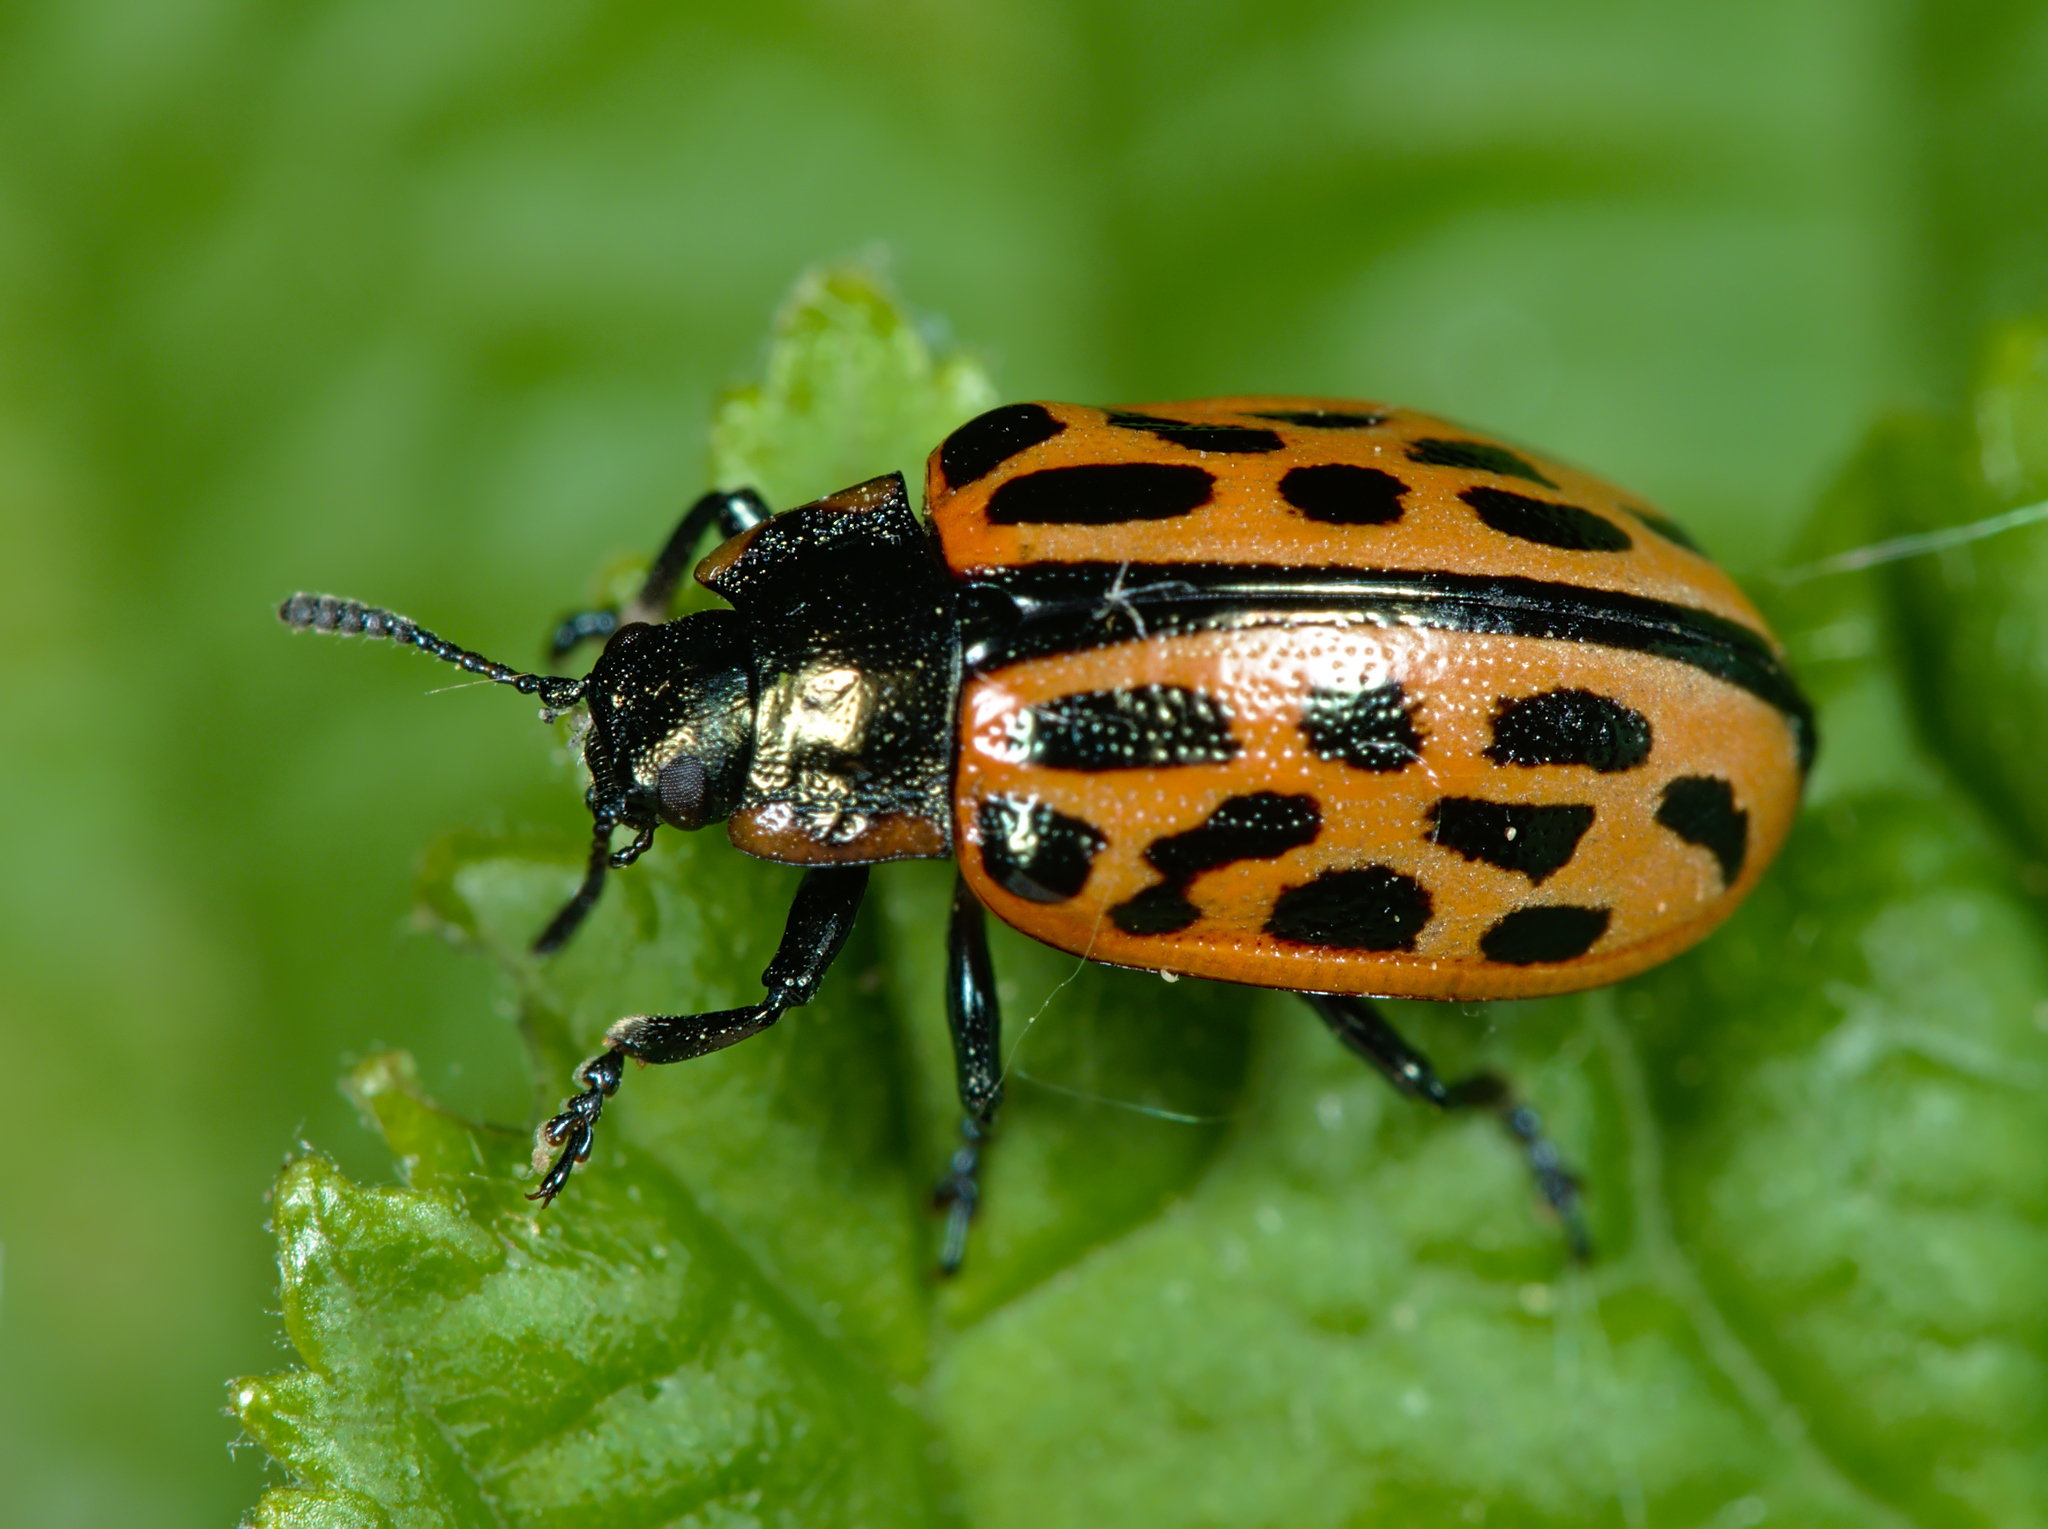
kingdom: Animalia
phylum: Arthropoda
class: Insecta
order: Coleoptera
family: Chrysomelidae
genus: Chrysomela
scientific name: Chrysomela vigintipunctata
